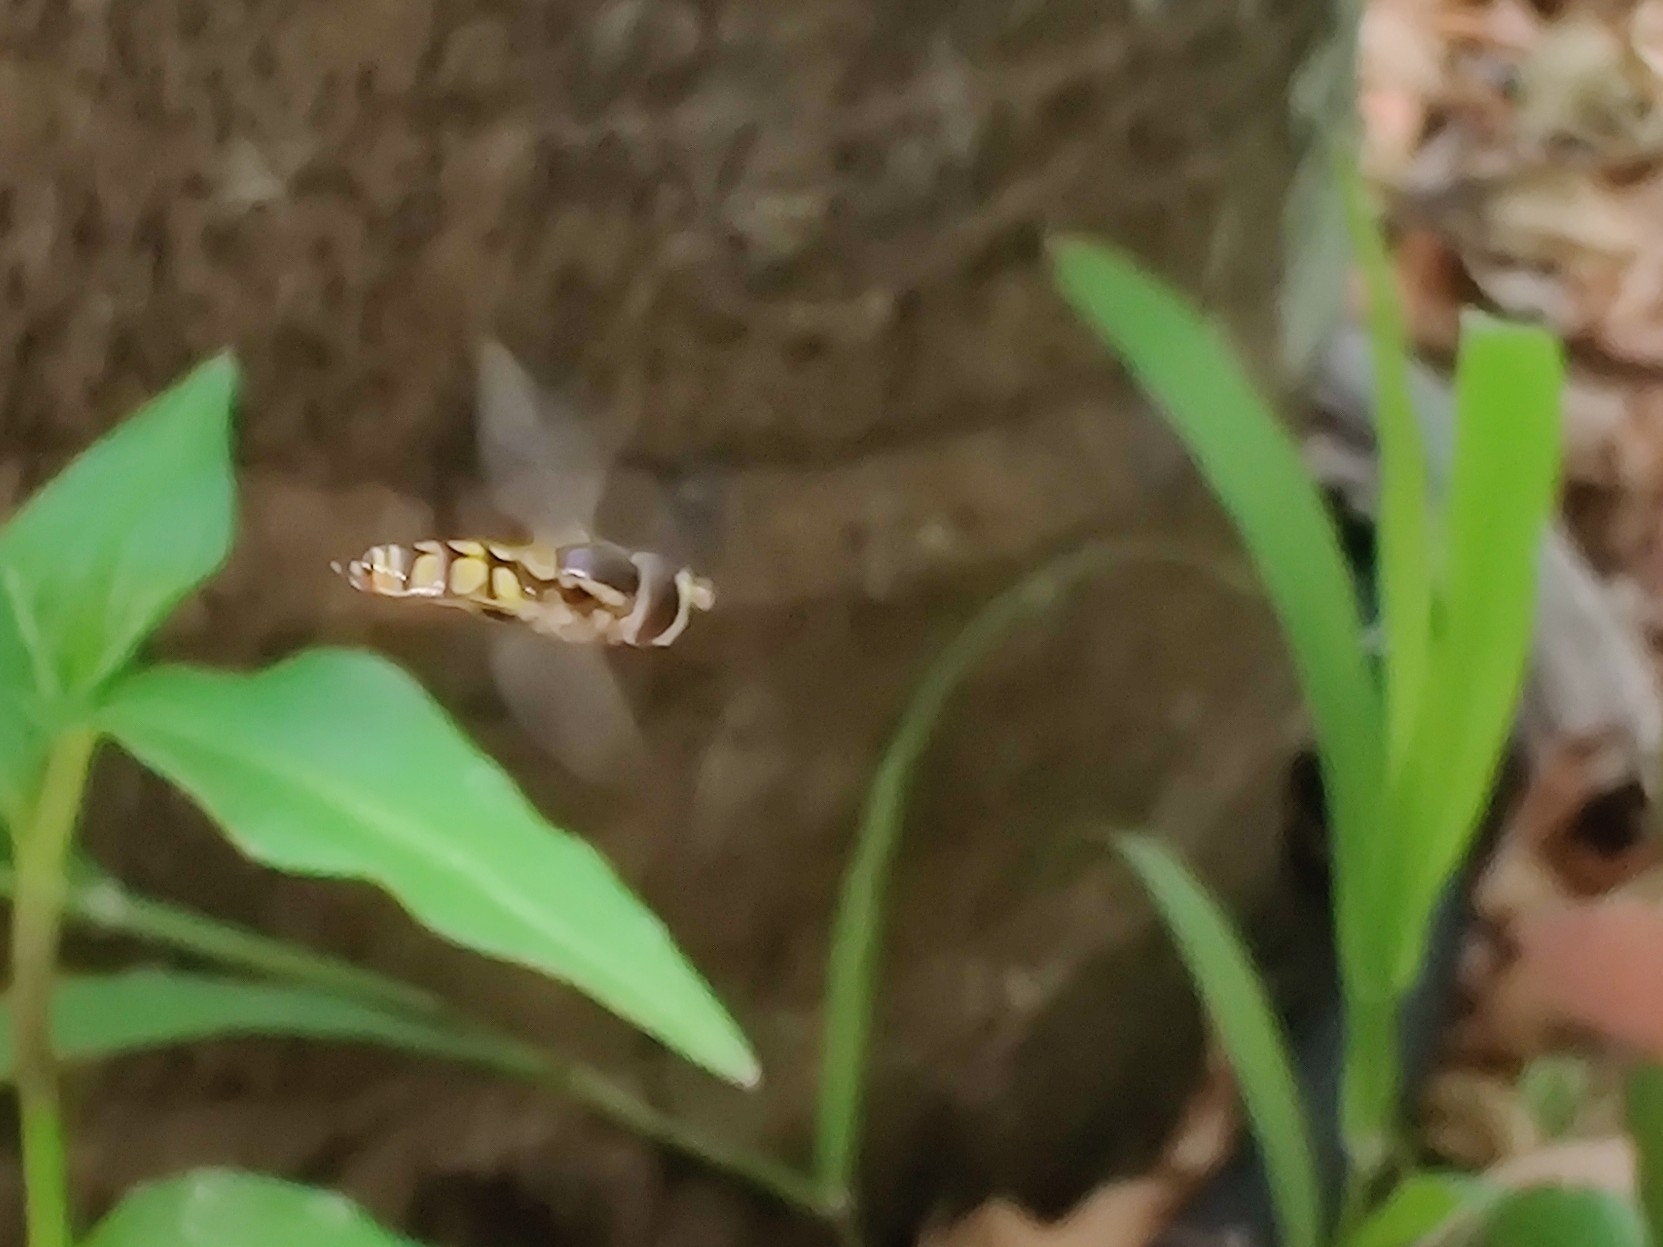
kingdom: Animalia
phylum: Arthropoda
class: Insecta
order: Diptera
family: Syrphidae
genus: Simosyrphus
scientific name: Simosyrphus grandicornis
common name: Hoverfly
